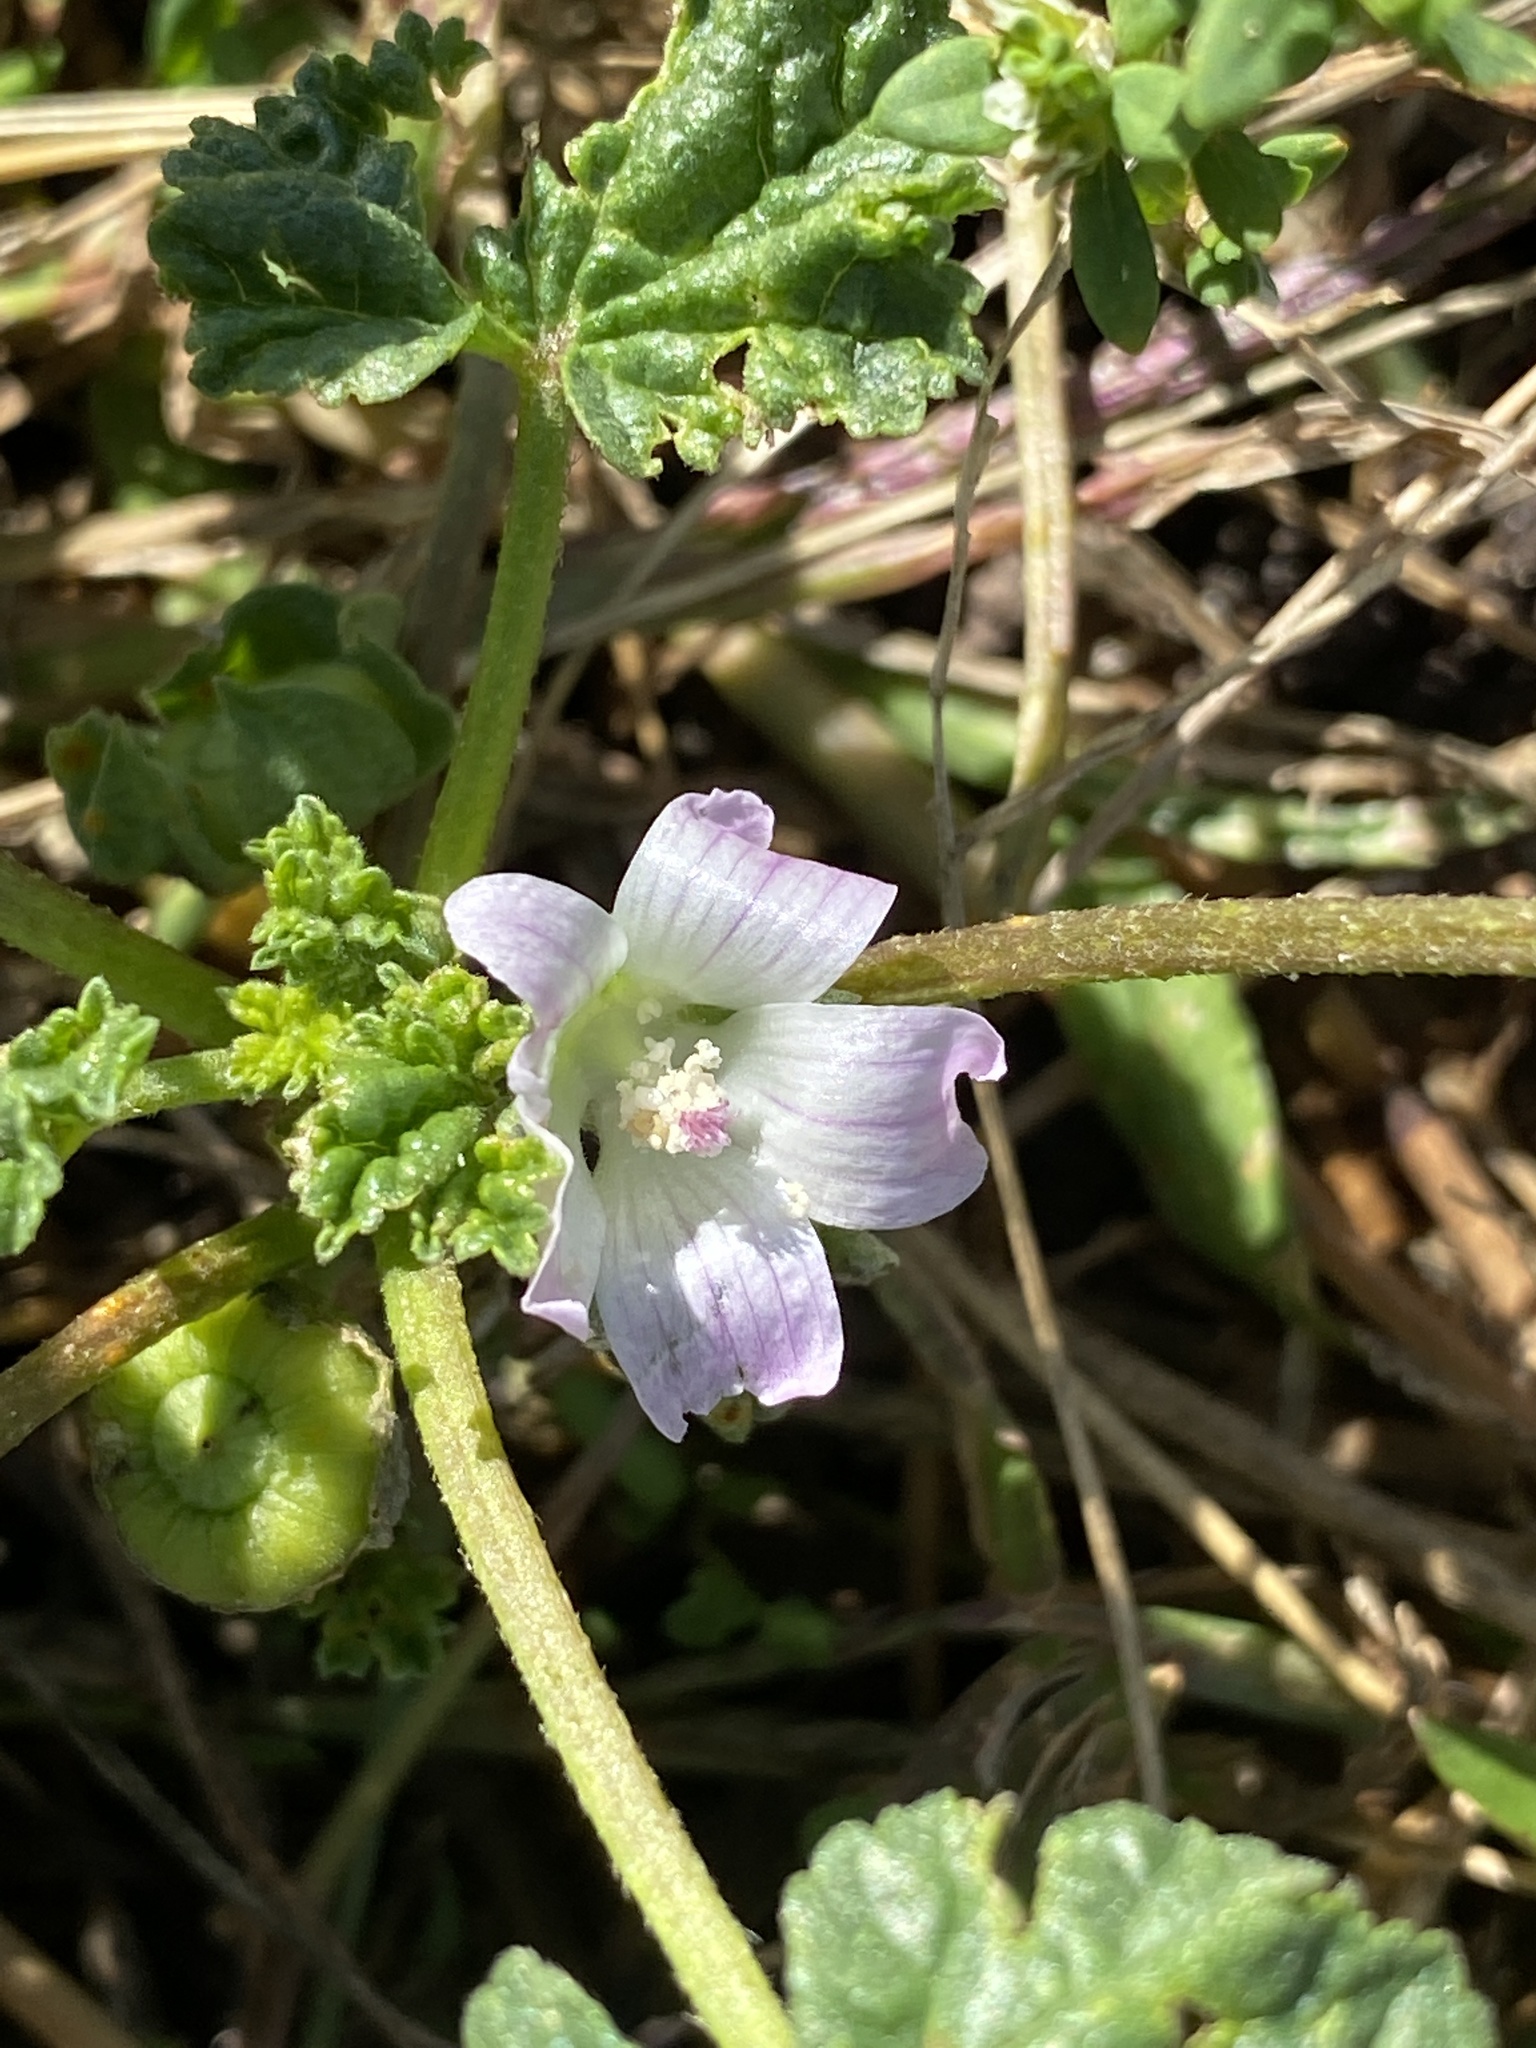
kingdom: Plantae
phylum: Tracheophyta
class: Magnoliopsida
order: Malvales
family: Malvaceae
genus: Malva
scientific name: Malva neglecta
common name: Common mallow
